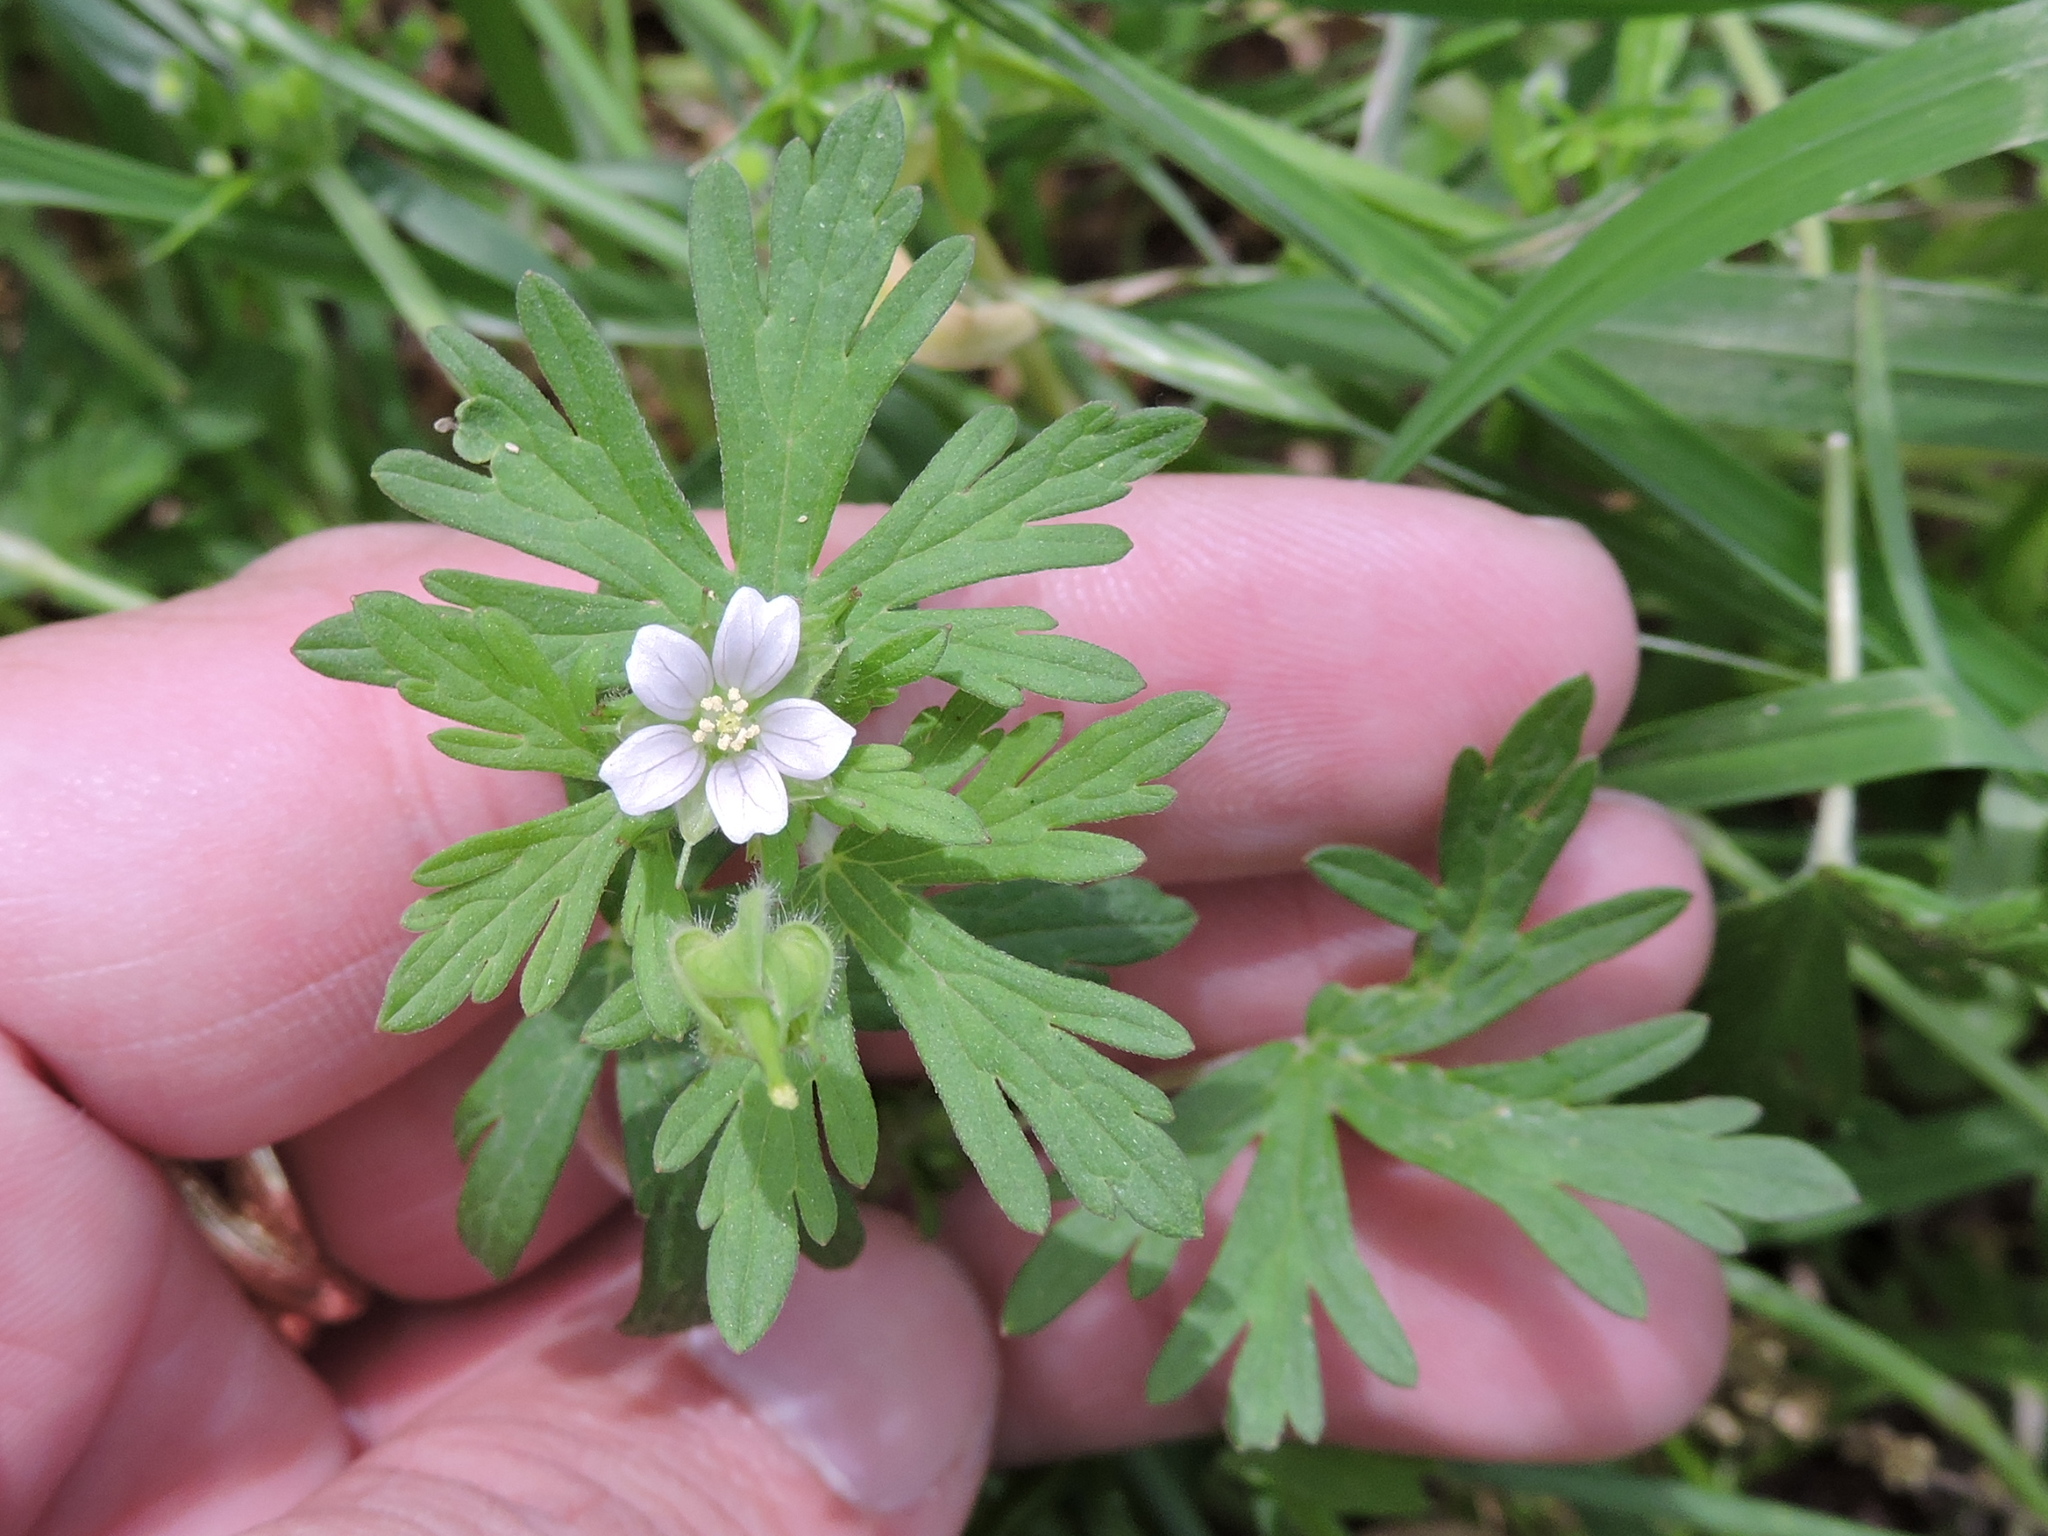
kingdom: Plantae
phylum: Tracheophyta
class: Magnoliopsida
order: Geraniales
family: Geraniaceae
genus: Geranium
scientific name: Geranium carolinianum
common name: Carolina crane's-bill
